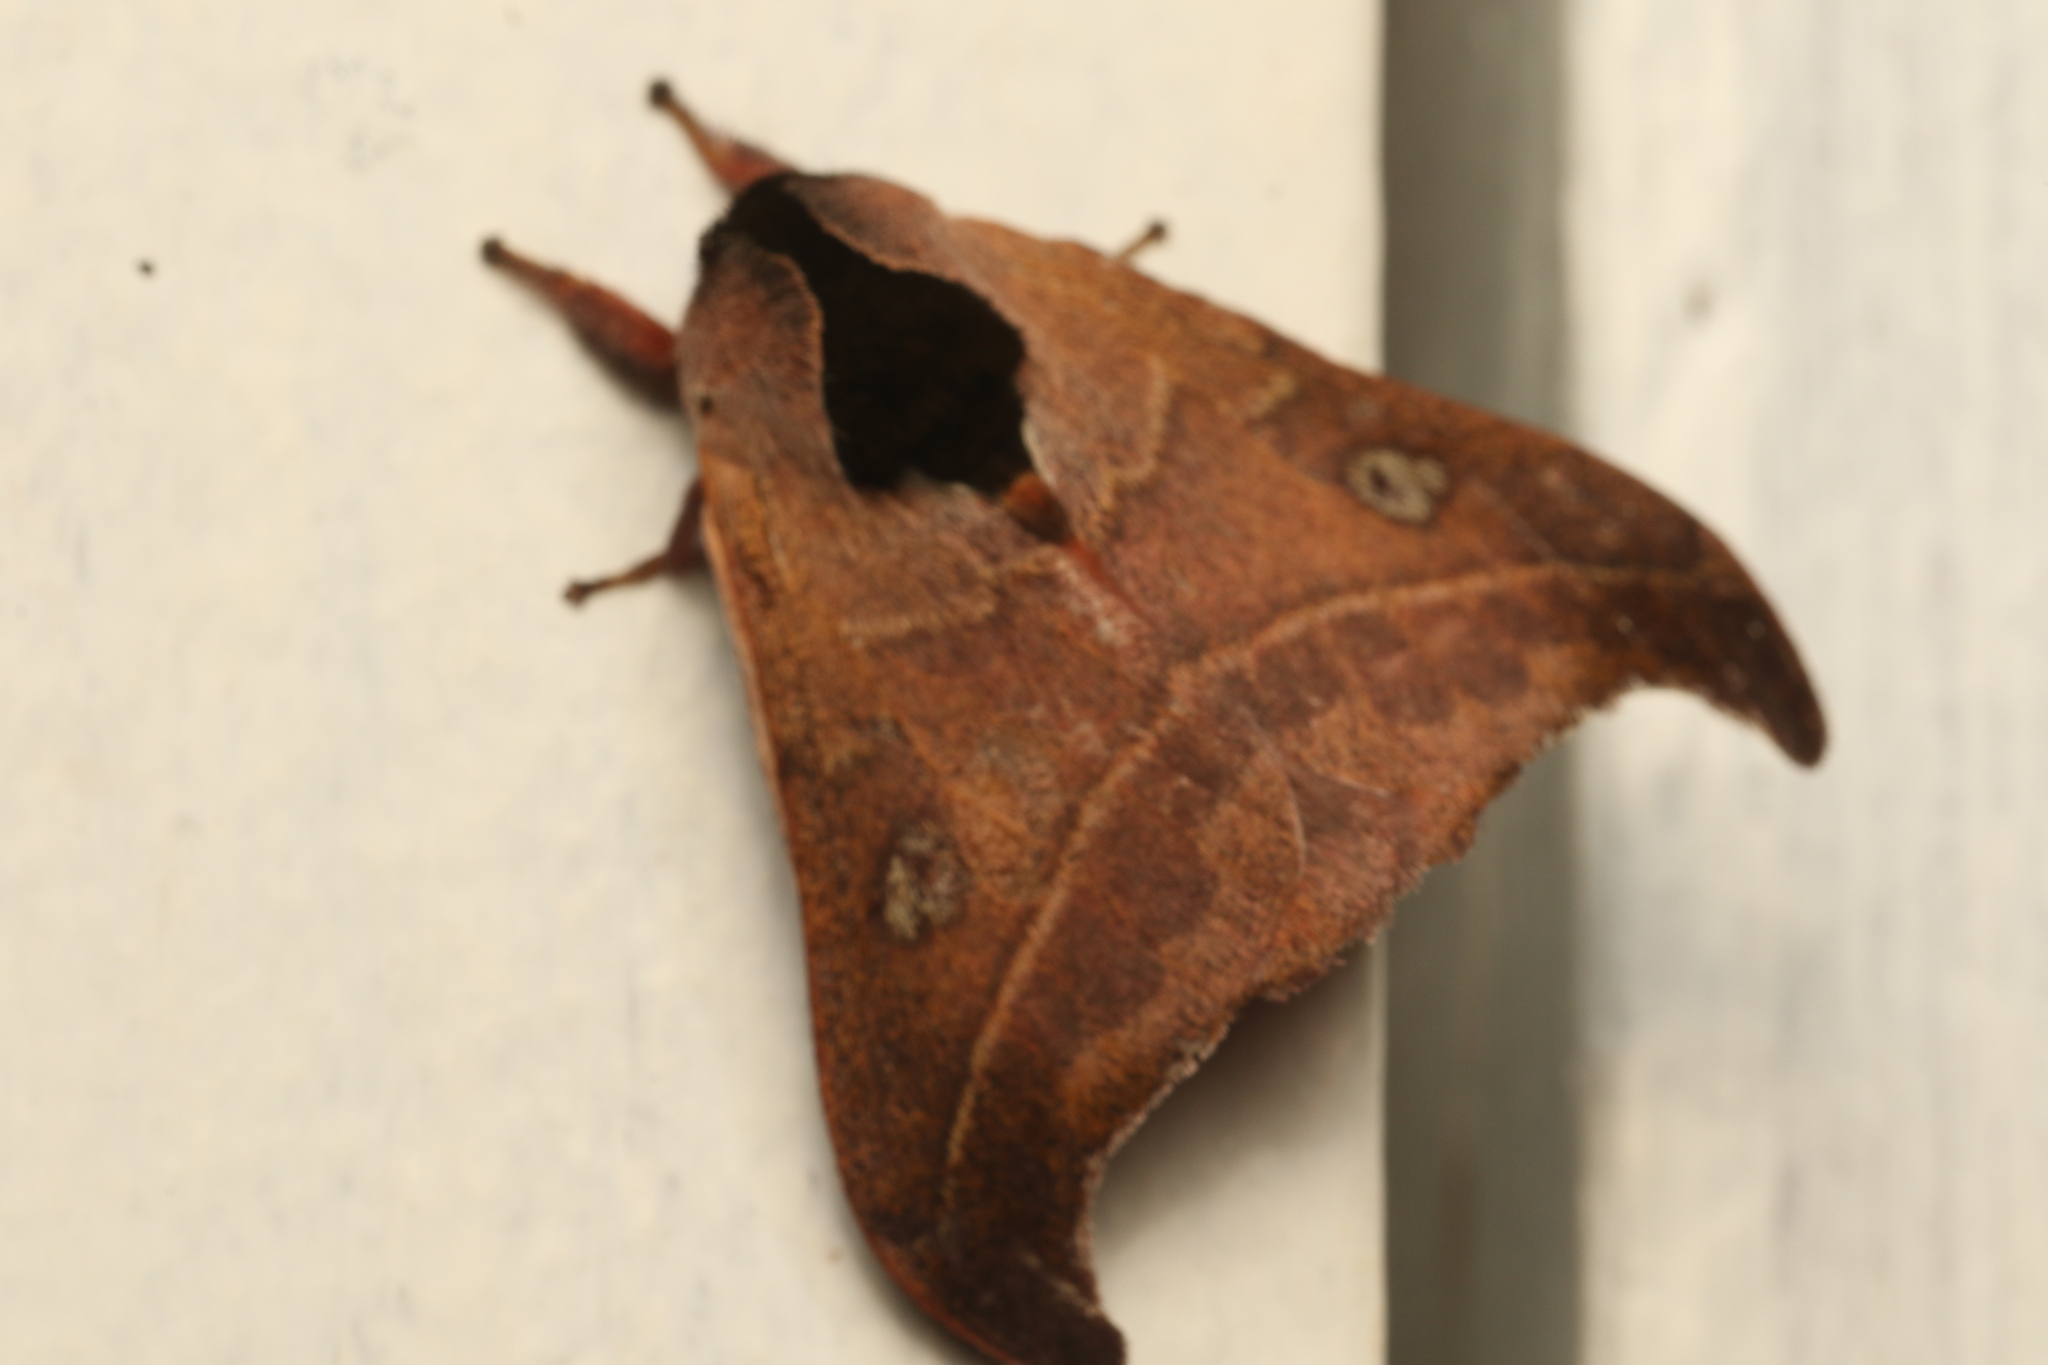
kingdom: Animalia
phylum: Arthropoda
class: Insecta
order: Lepidoptera
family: Saturniidae
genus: Hylesia
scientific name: Hylesia nanus
